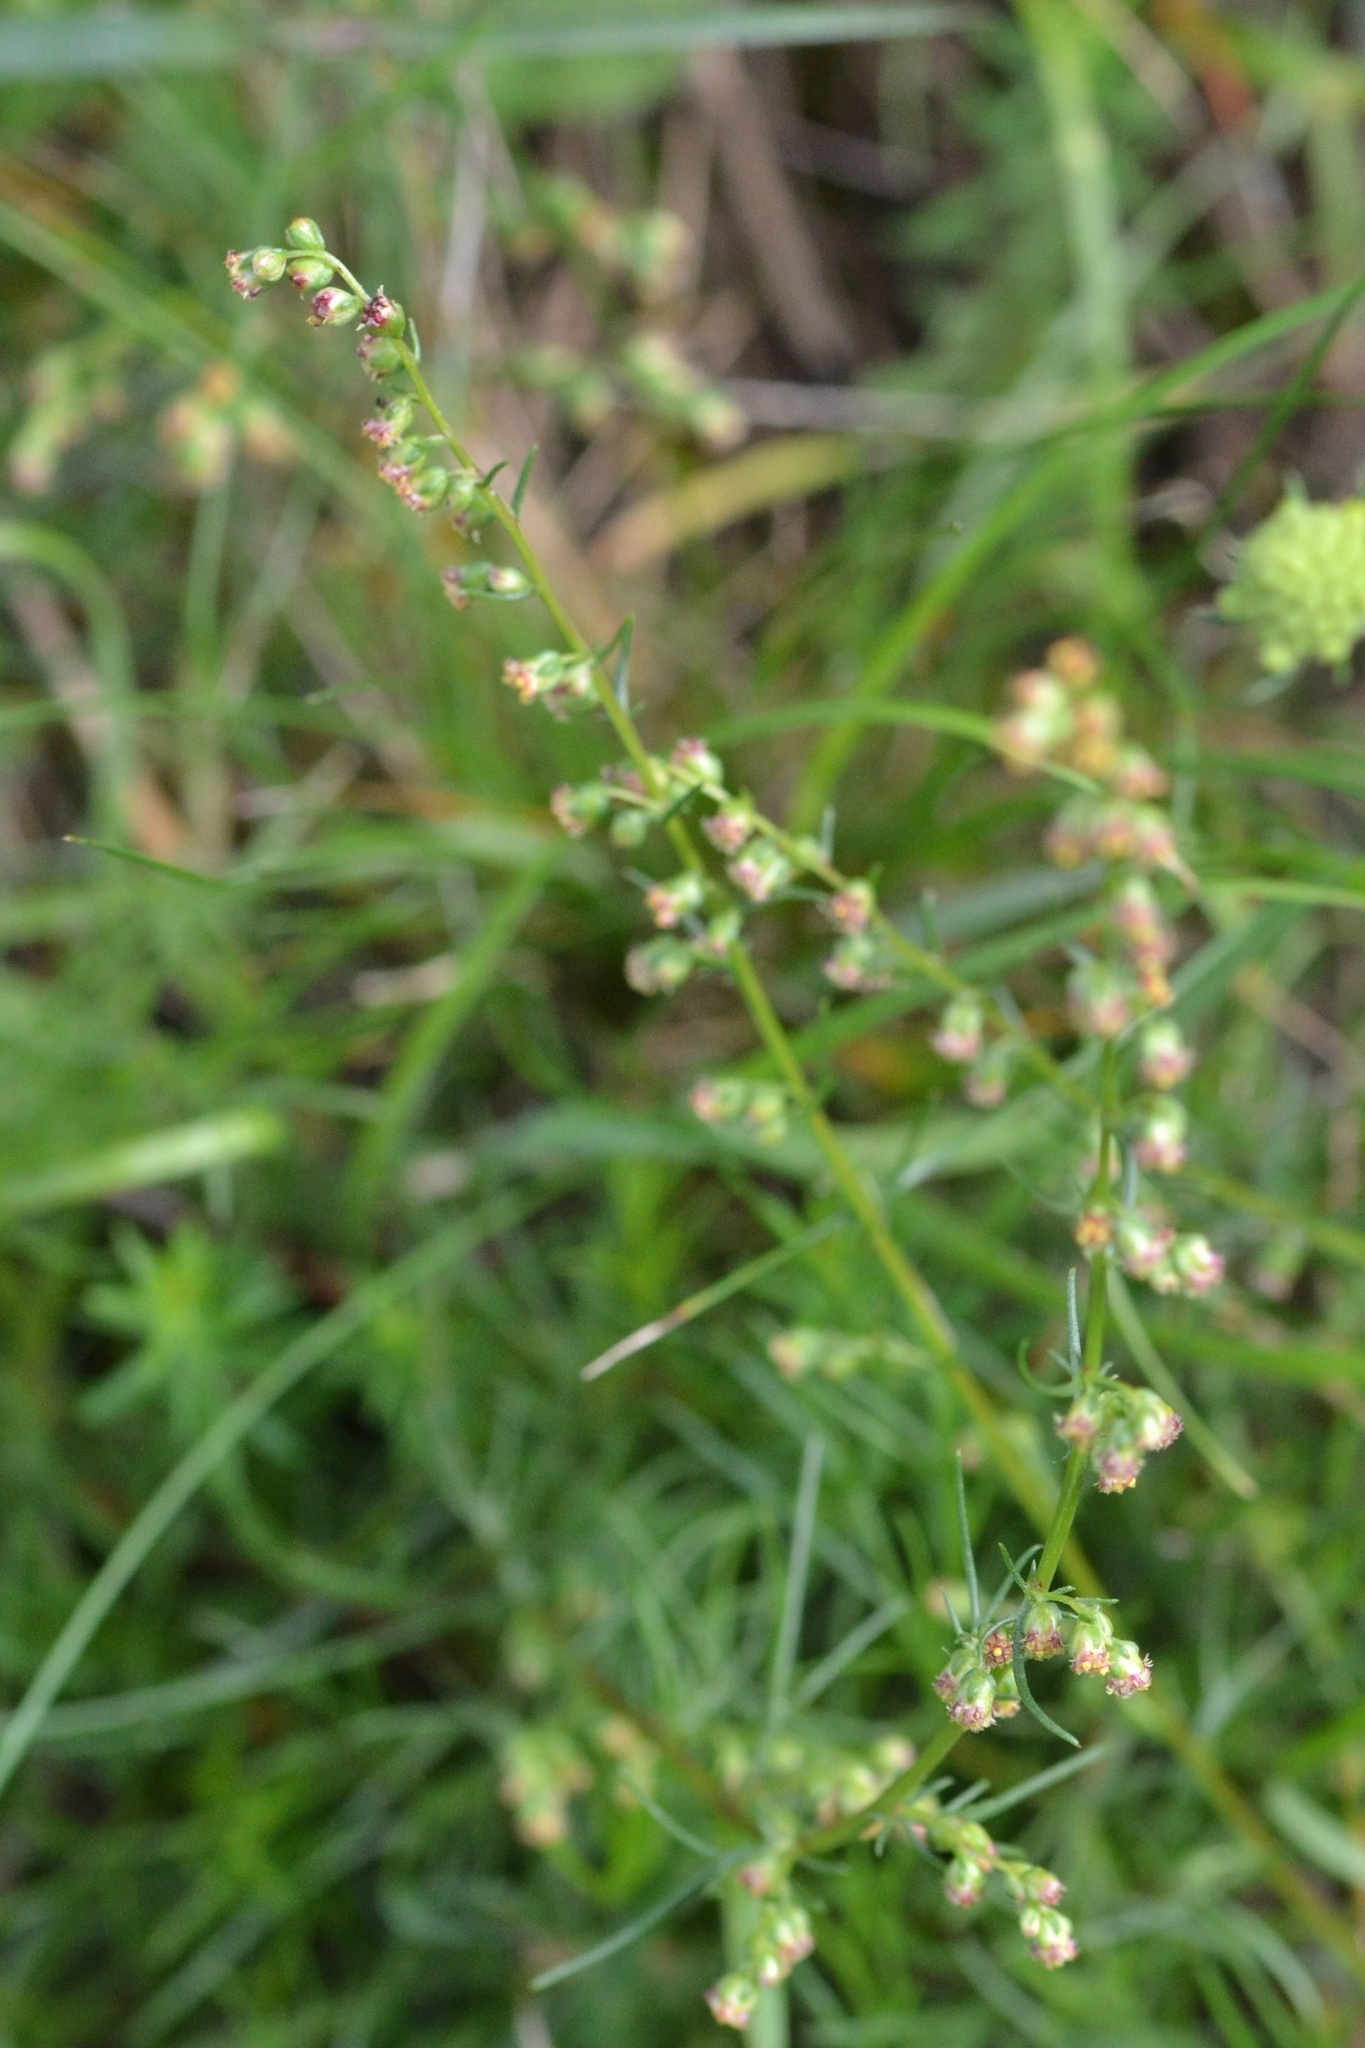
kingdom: Plantae
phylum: Tracheophyta
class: Magnoliopsida
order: Asterales
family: Asteraceae
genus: Artemisia
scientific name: Artemisia campestris
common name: Field wormwood
